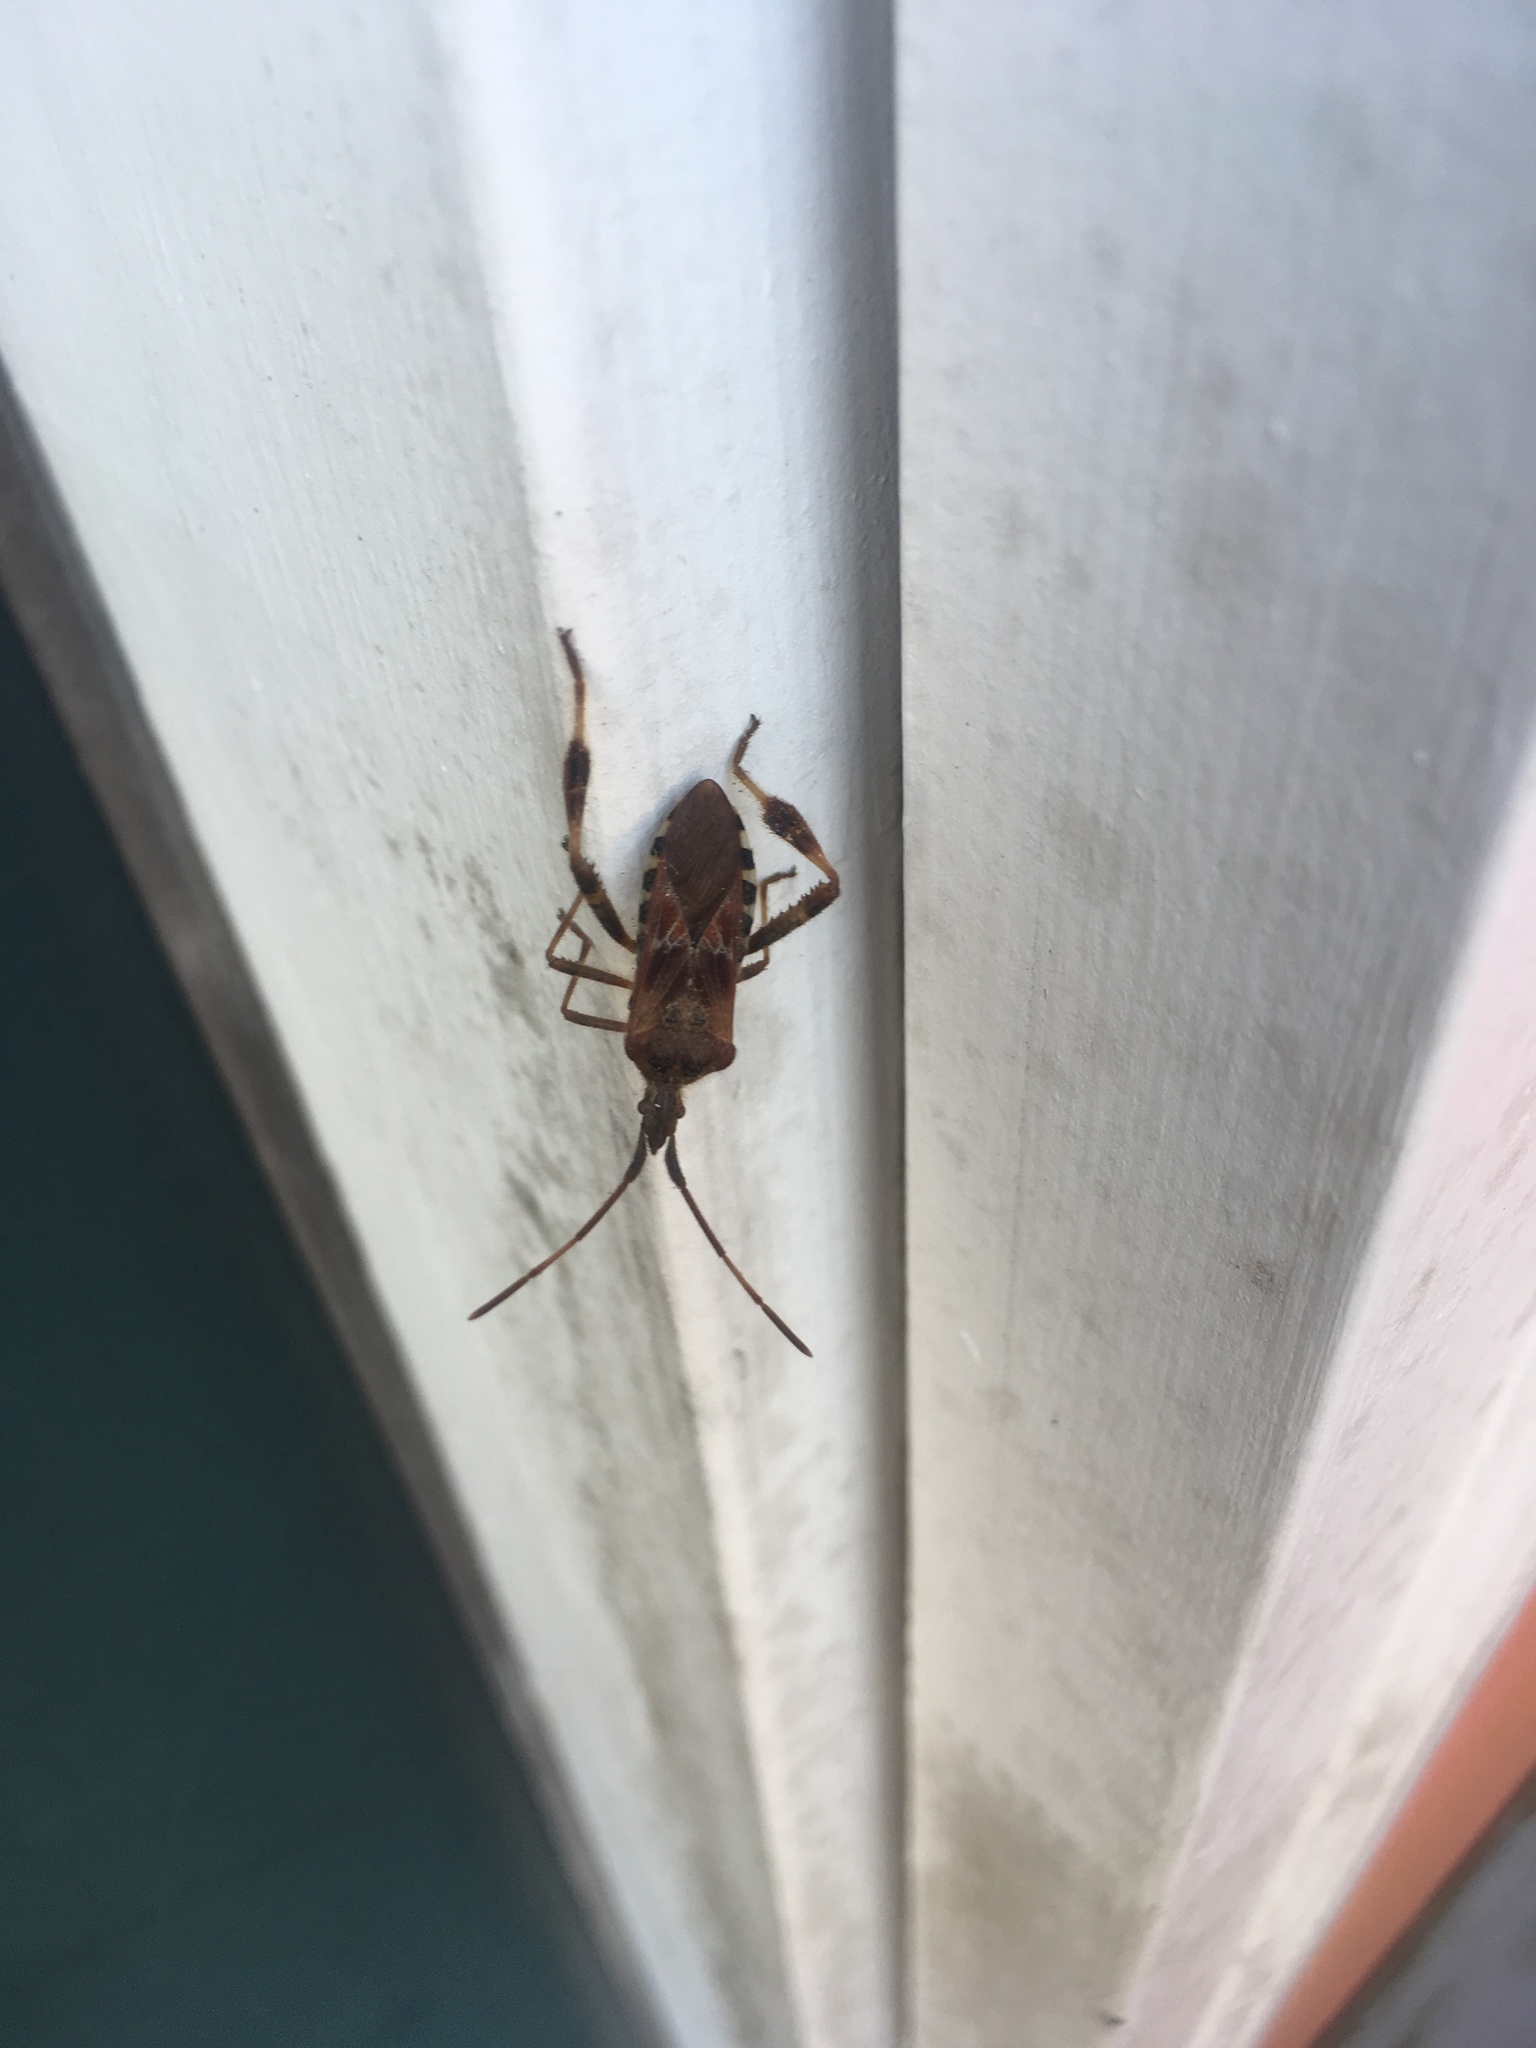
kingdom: Animalia
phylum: Arthropoda
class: Insecta
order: Hemiptera
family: Coreidae
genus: Leptoglossus
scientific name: Leptoglossus occidentalis
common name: Western conifer-seed bug
